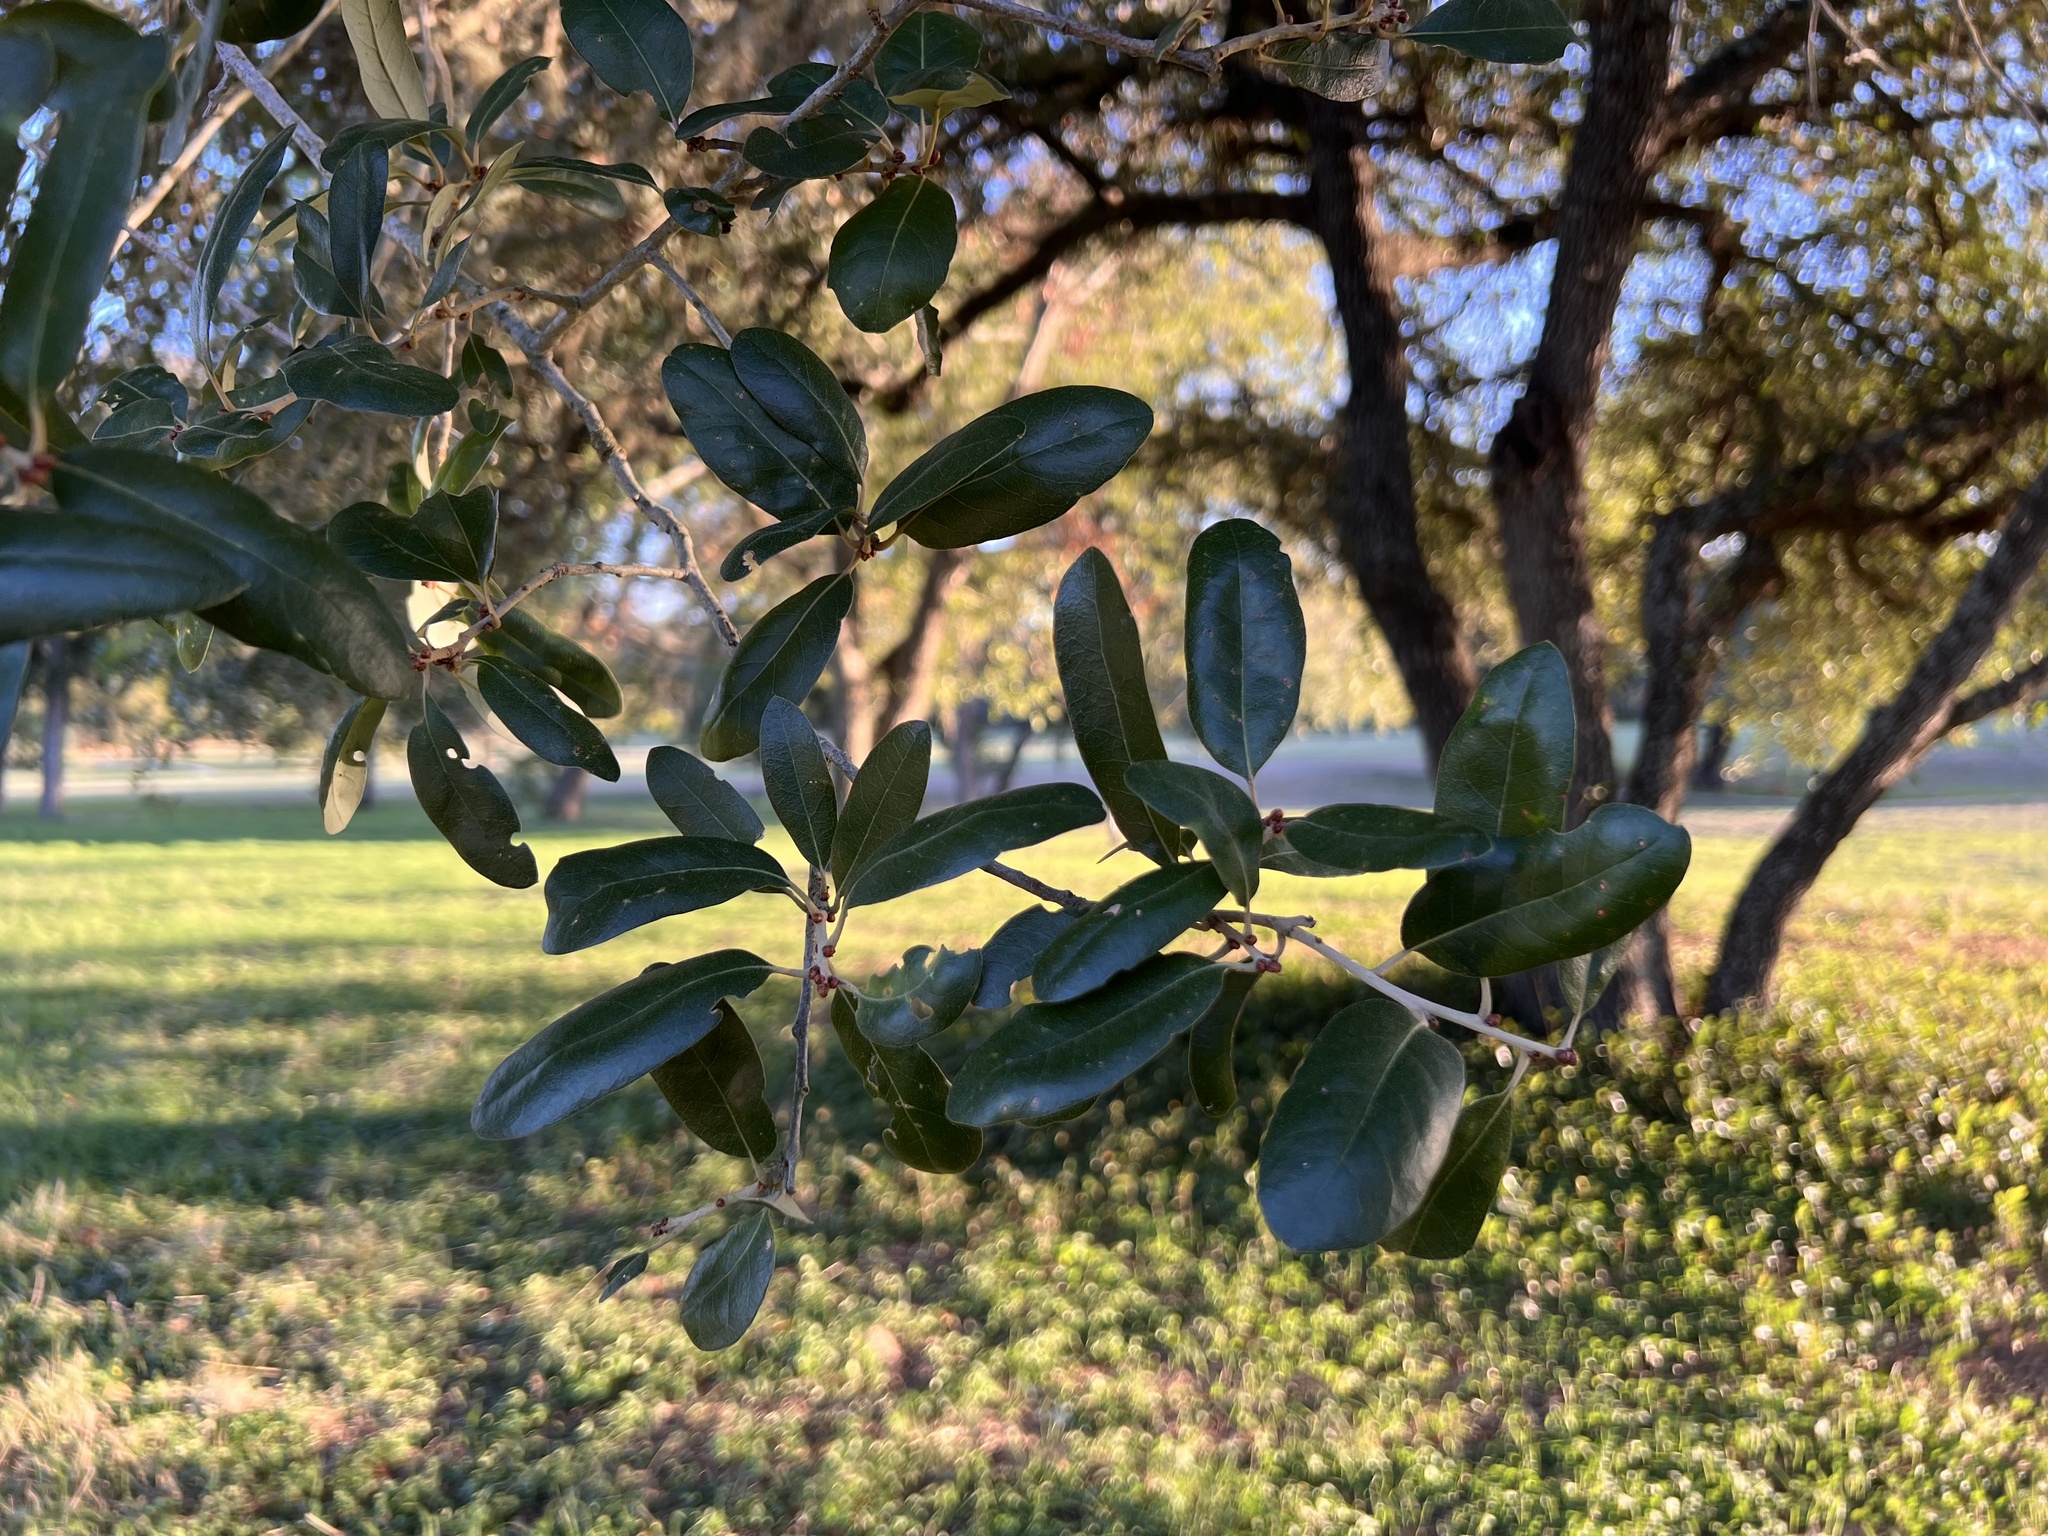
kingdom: Plantae
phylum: Tracheophyta
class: Magnoliopsida
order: Fagales
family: Fagaceae
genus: Quercus
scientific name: Quercus fusiformis
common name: Texas live oak
